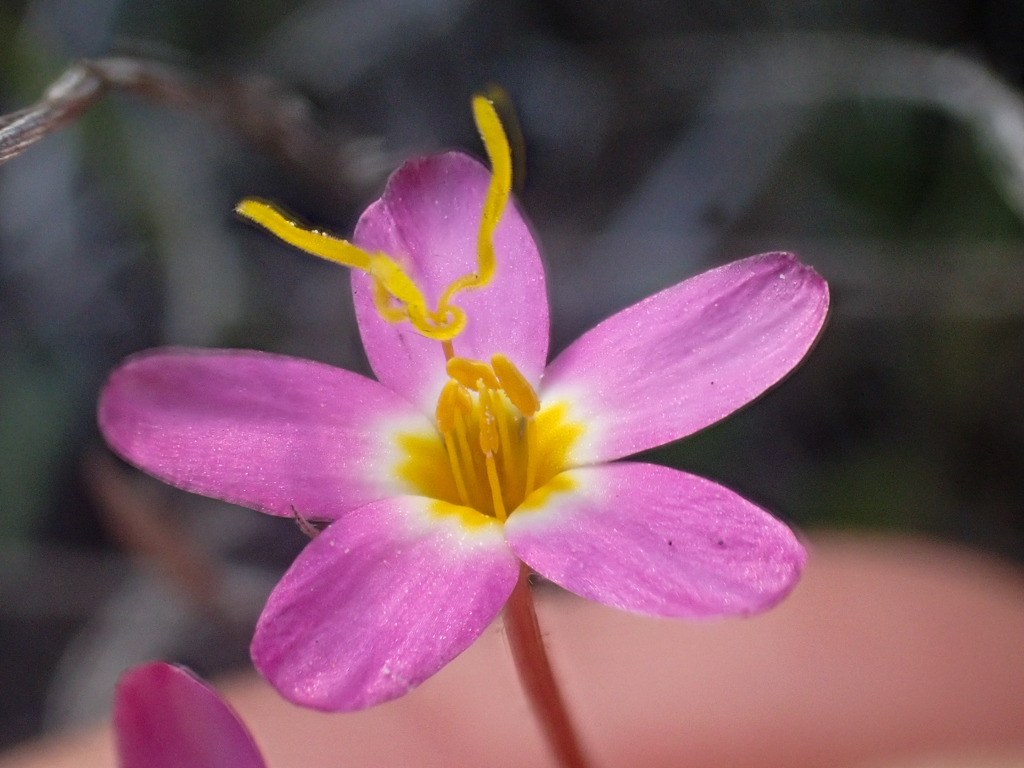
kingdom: Plantae
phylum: Tracheophyta
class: Magnoliopsida
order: Ericales
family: Polemoniaceae
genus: Leptosiphon
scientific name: Leptosiphon parviflorus
